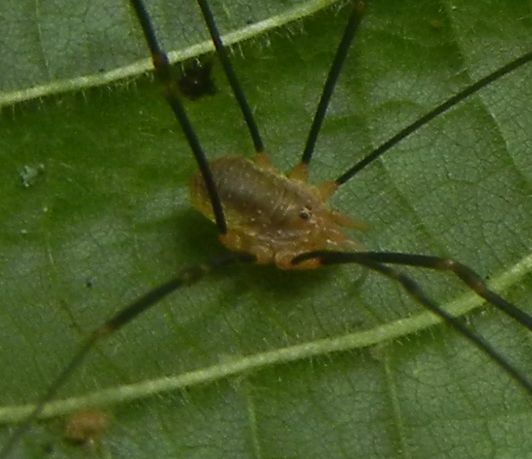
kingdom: Animalia
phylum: Arthropoda
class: Arachnida
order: Opiliones
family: Phalangiidae
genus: Opilio
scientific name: Opilio canestrinii
